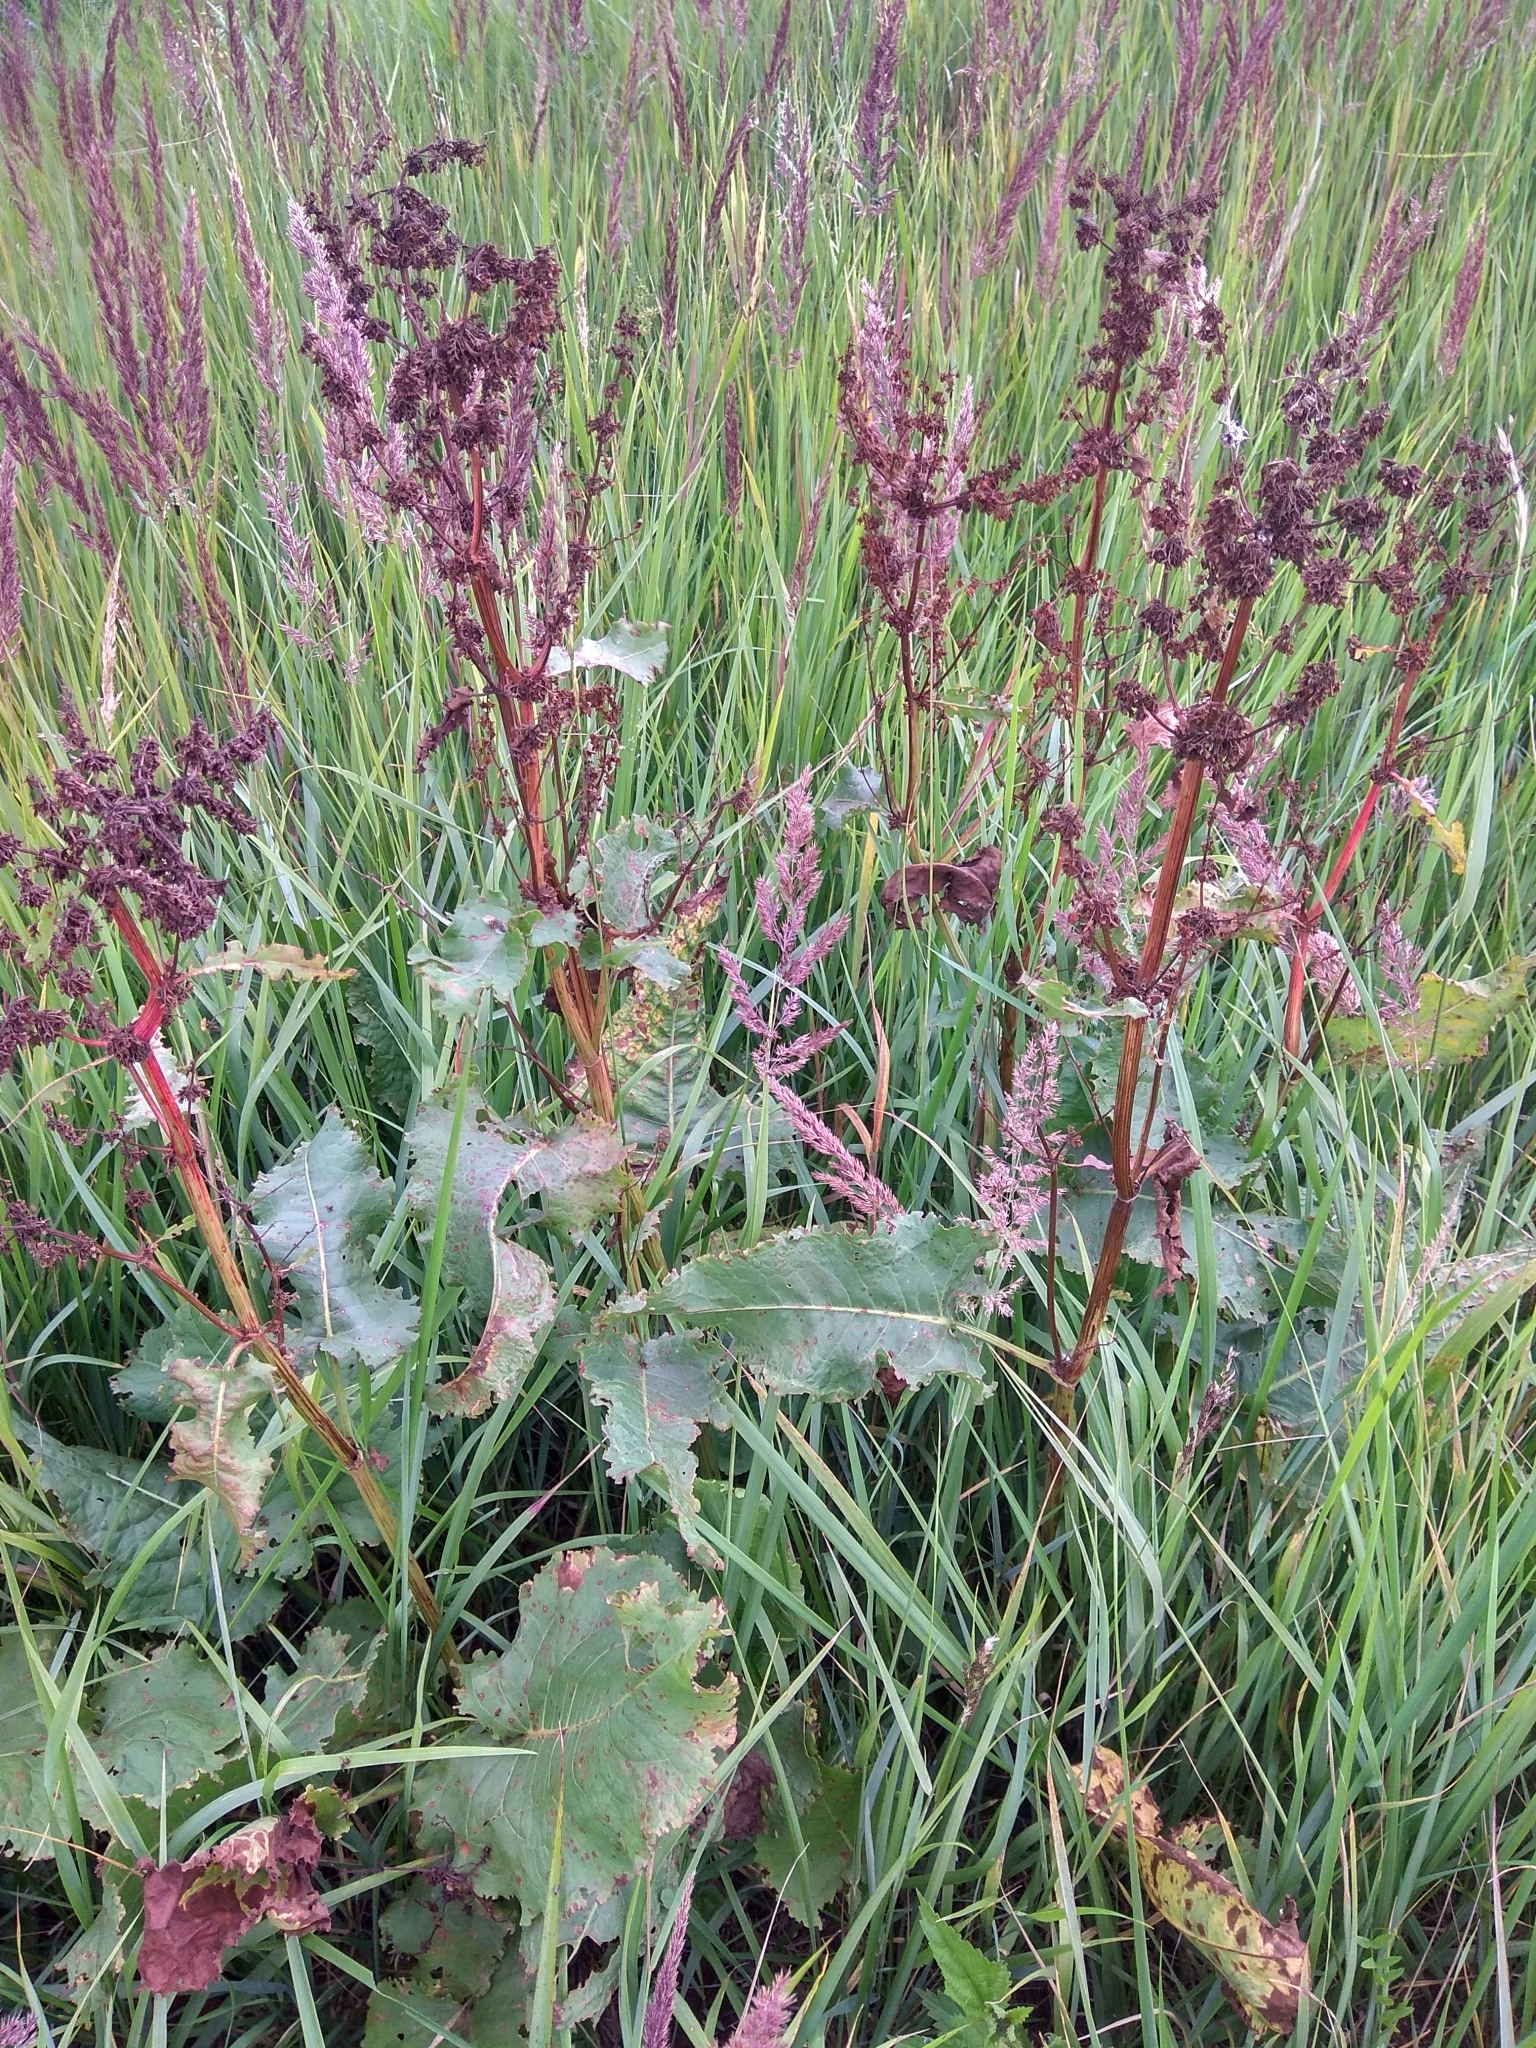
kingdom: Plantae
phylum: Tracheophyta
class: Magnoliopsida
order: Caryophyllales
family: Polygonaceae
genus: Rumex
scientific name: Rumex confertus
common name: Russian dock
